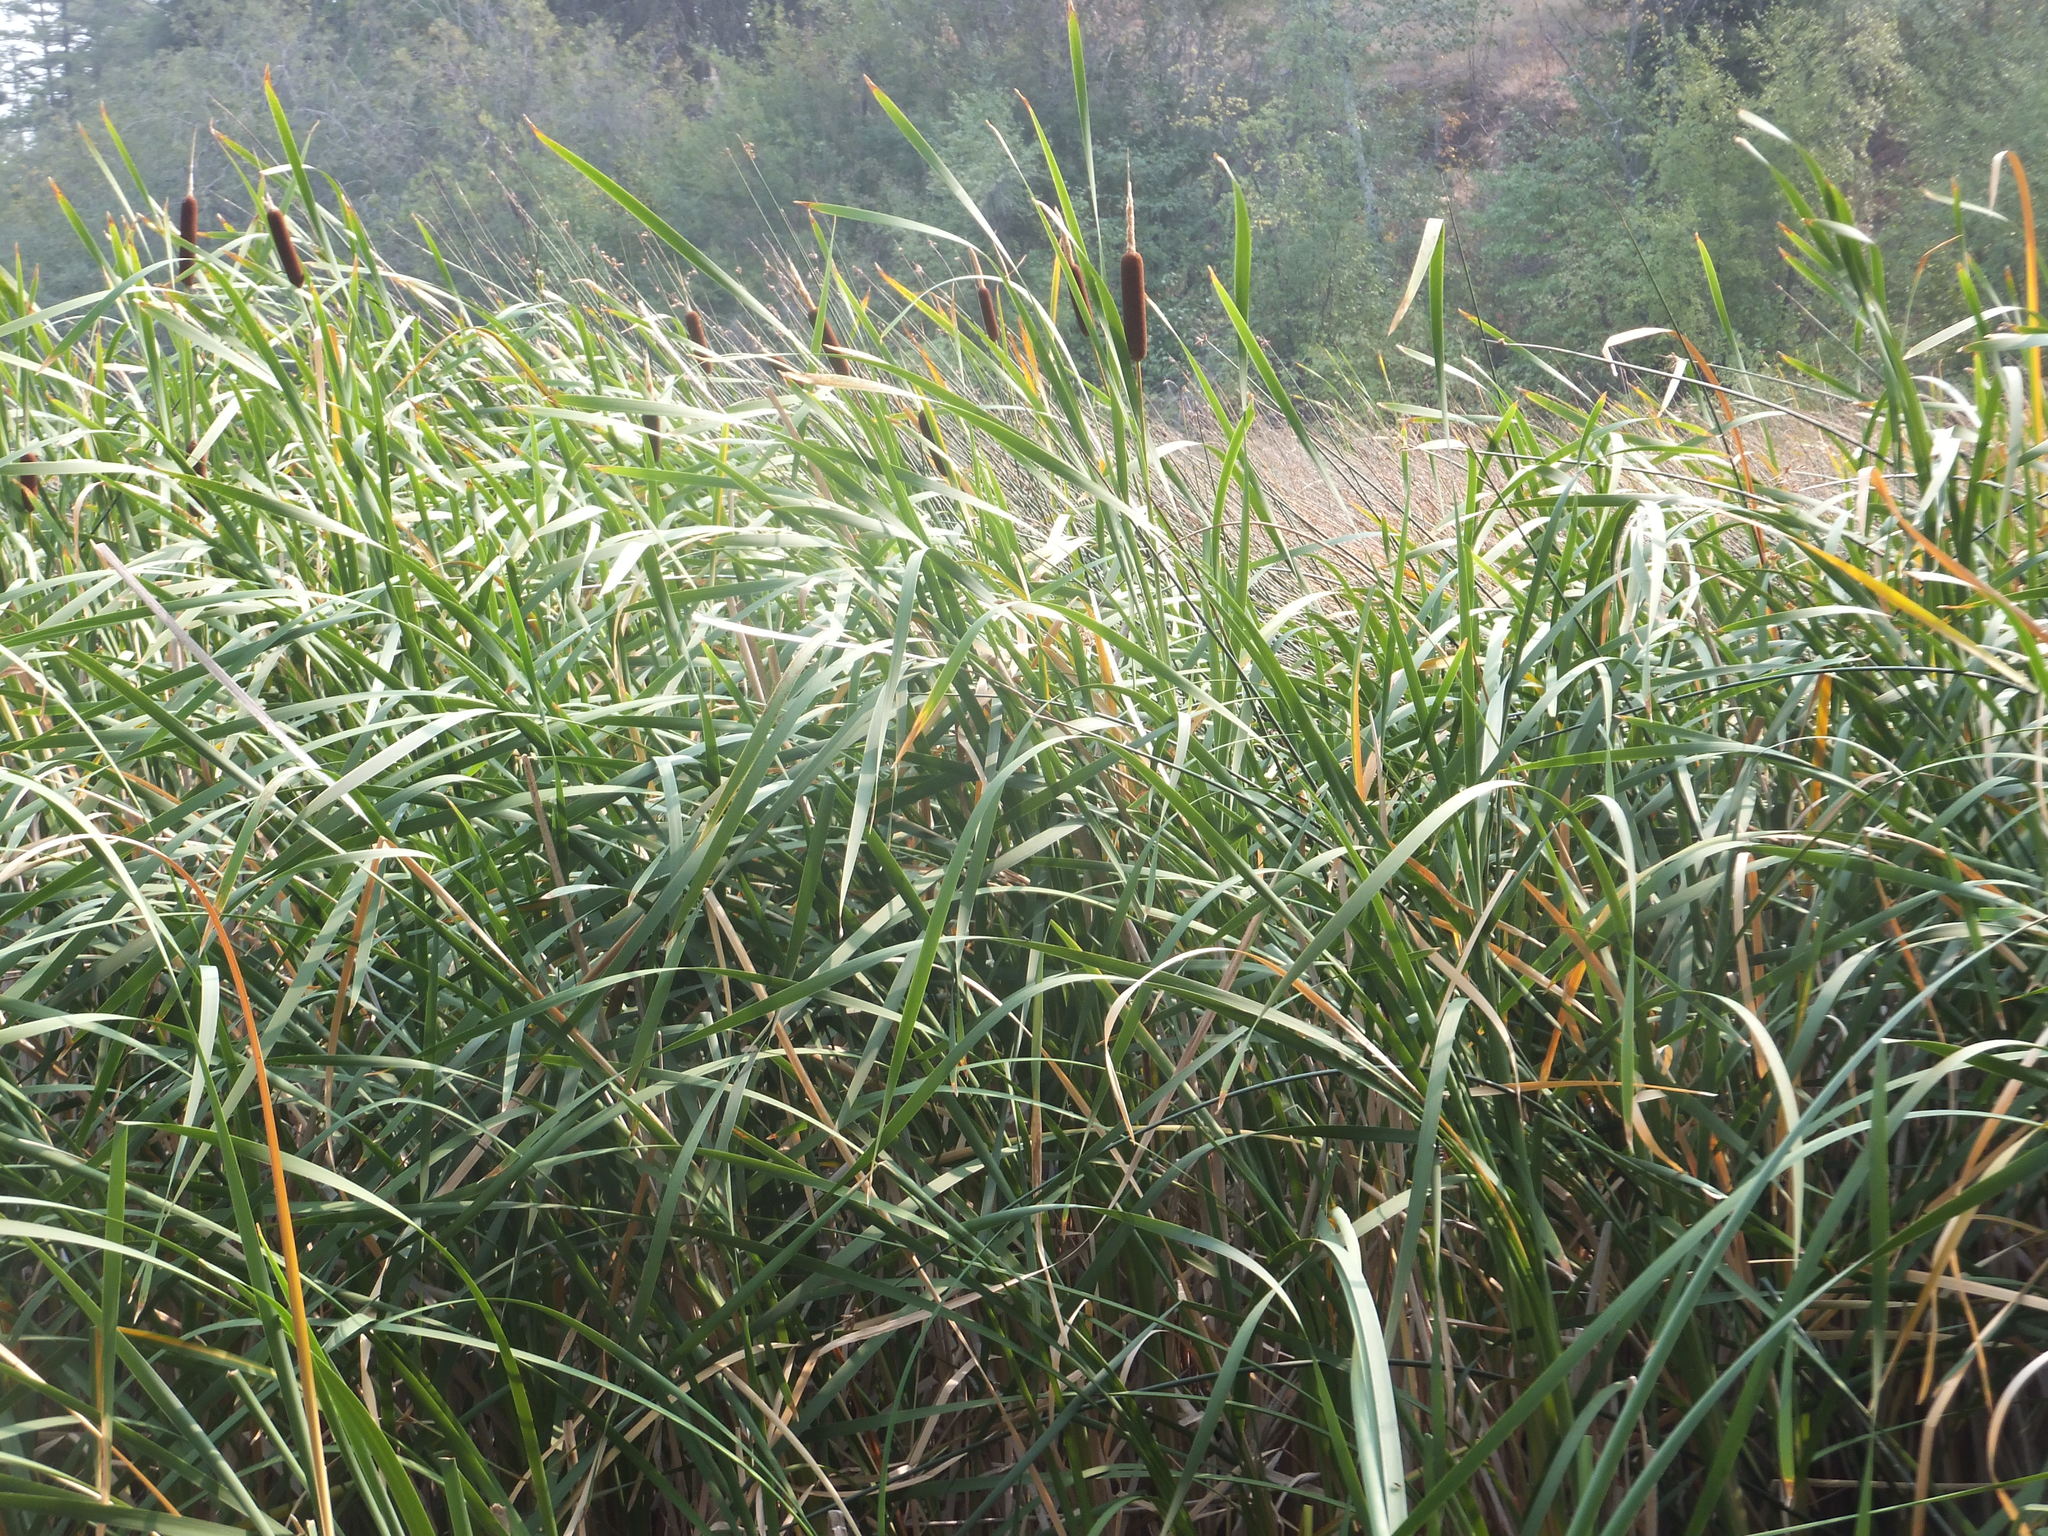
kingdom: Plantae
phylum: Tracheophyta
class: Liliopsida
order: Poales
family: Typhaceae
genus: Typha
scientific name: Typha latifolia
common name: Broadleaf cattail
